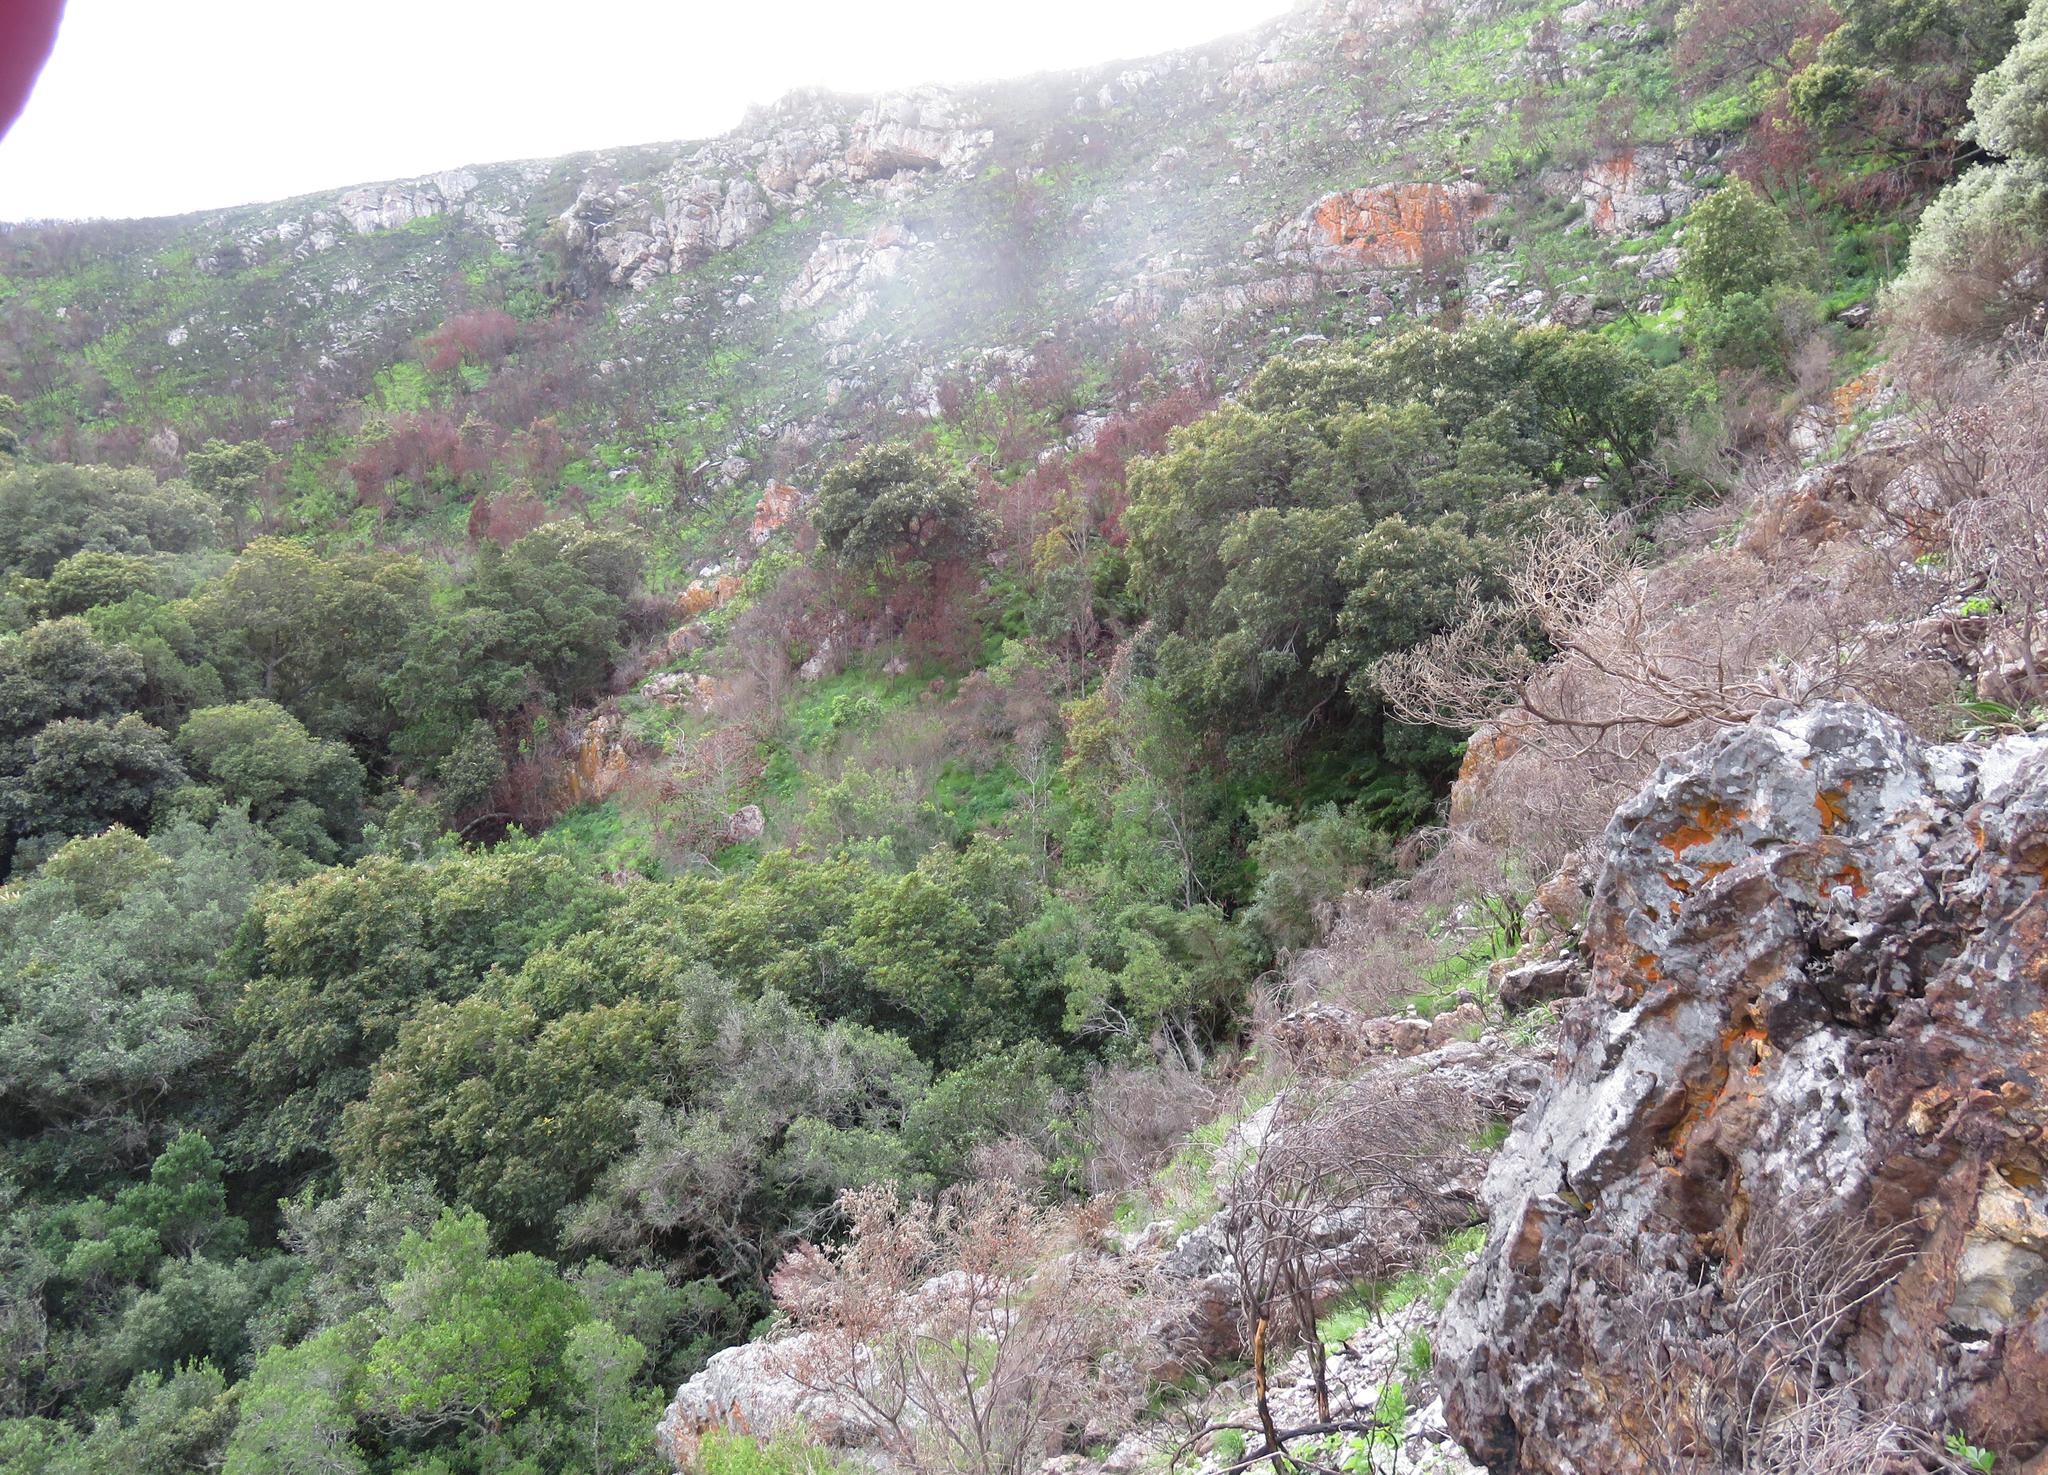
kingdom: Plantae
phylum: Tracheophyta
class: Magnoliopsida
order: Oxalidales
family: Cunoniaceae
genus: Cunonia
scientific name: Cunonia capensis
